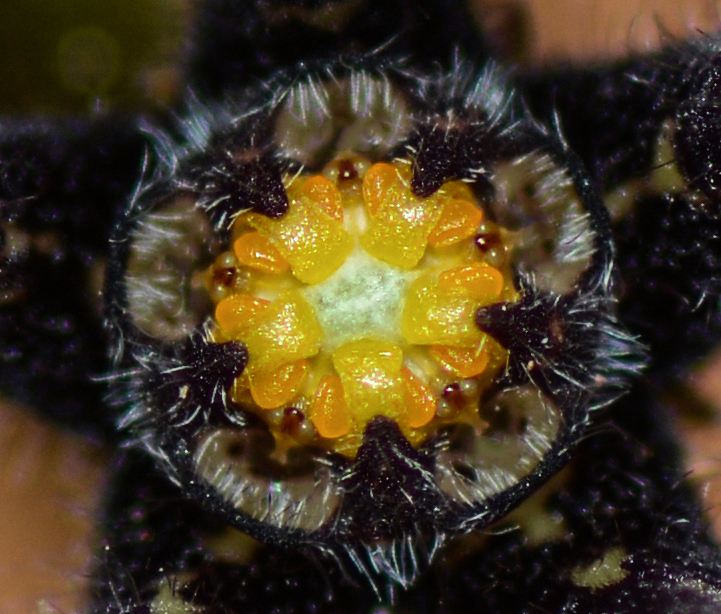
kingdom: Plantae
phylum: Tracheophyta
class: Magnoliopsida
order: Gentianales
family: Apocynaceae
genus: Ceropegia
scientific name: Ceropegia malwanensis
